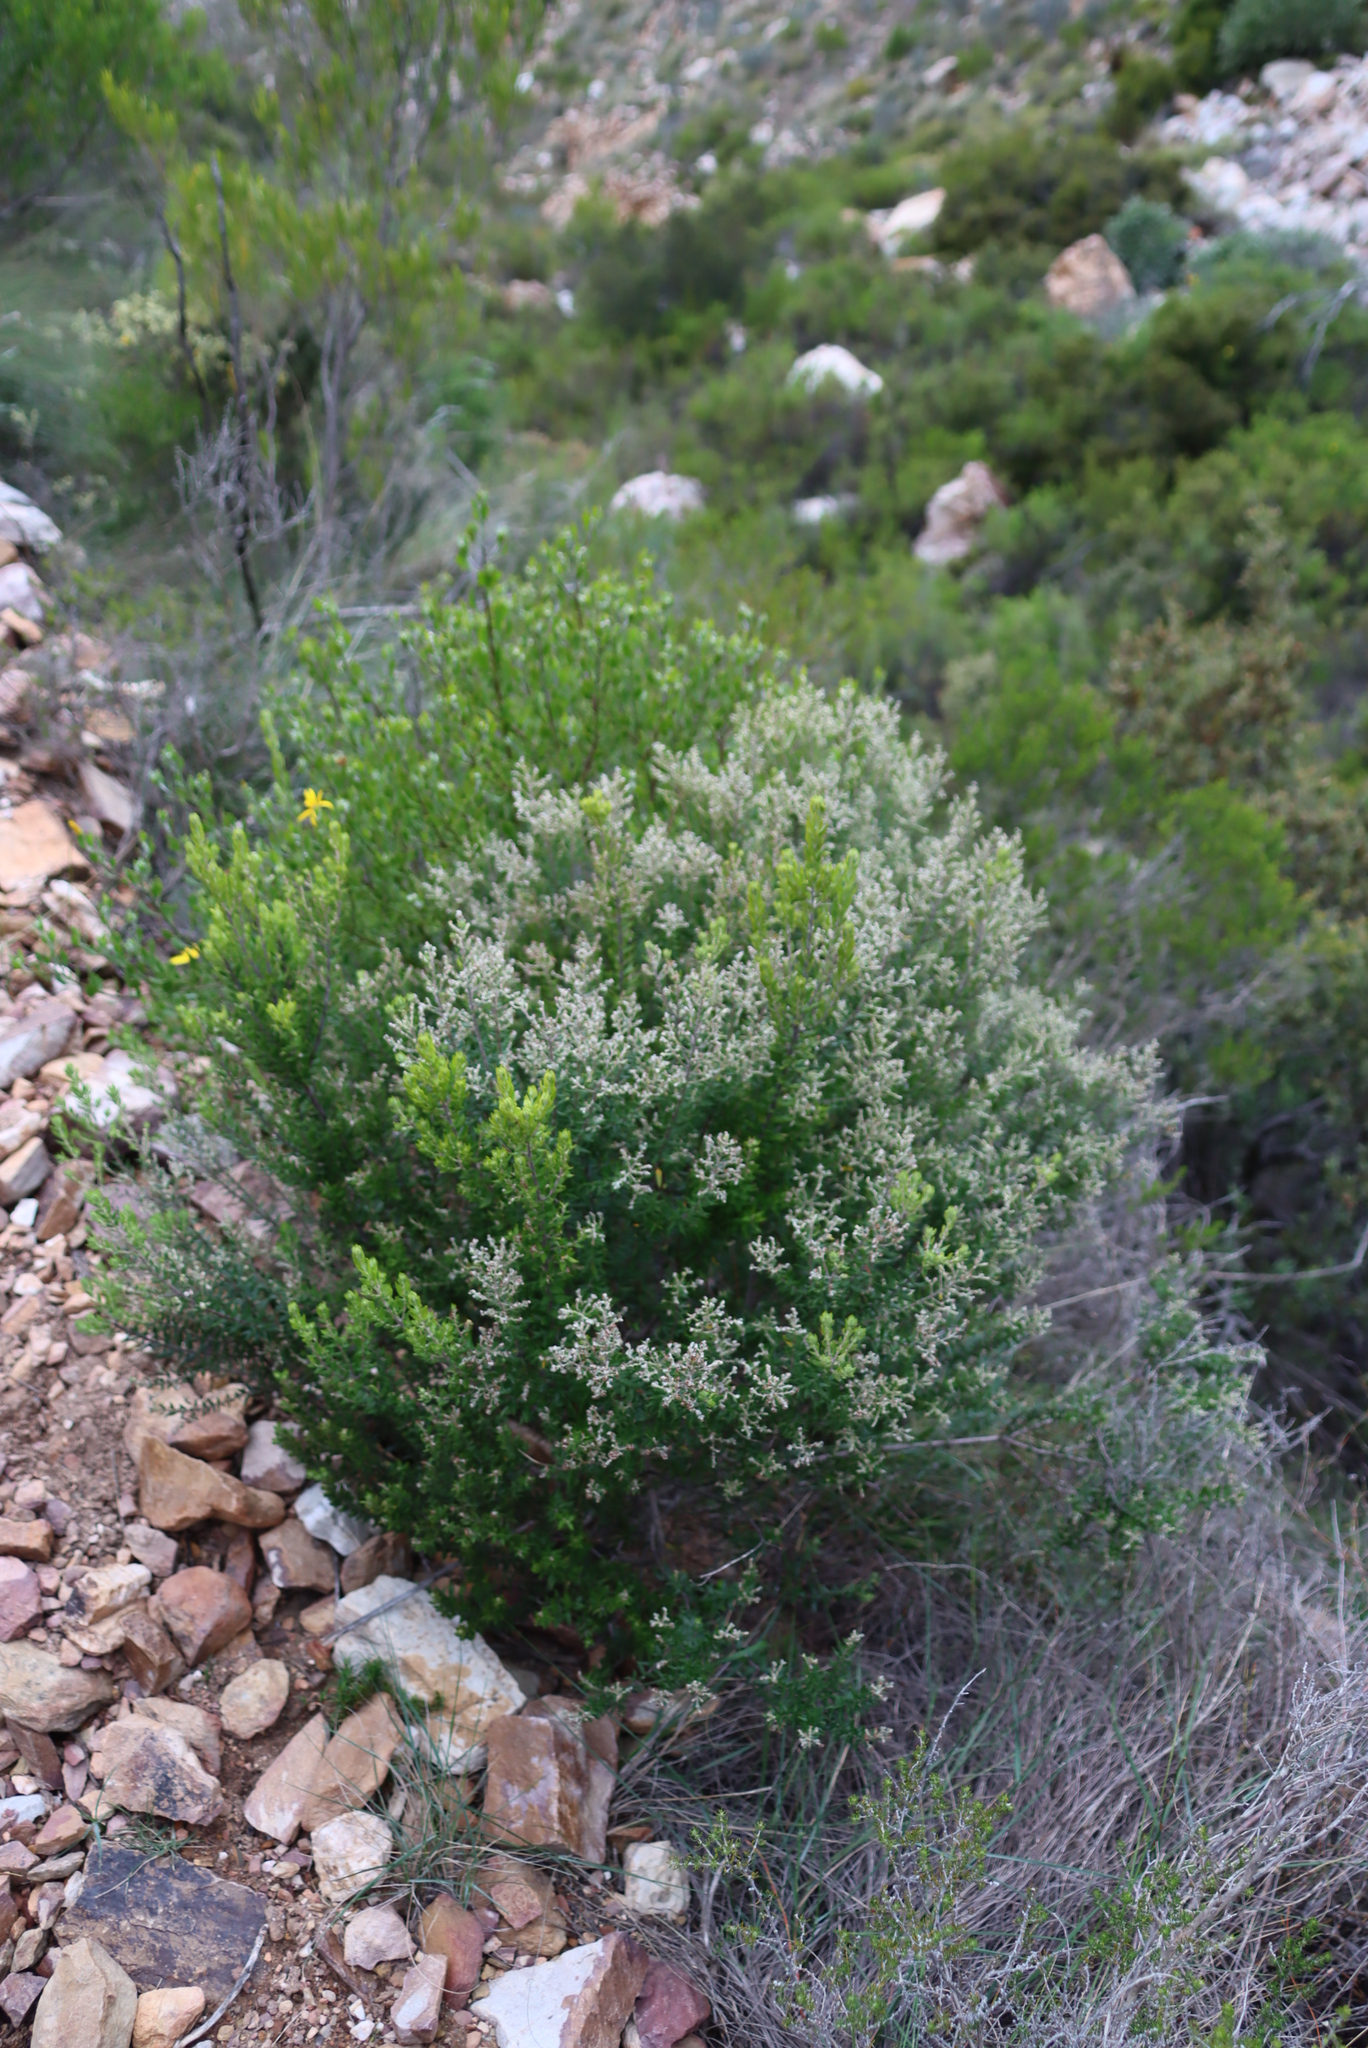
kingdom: Plantae
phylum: Tracheophyta
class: Magnoliopsida
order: Rosales
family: Rhamnaceae
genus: Phylica
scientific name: Phylica paniculata
